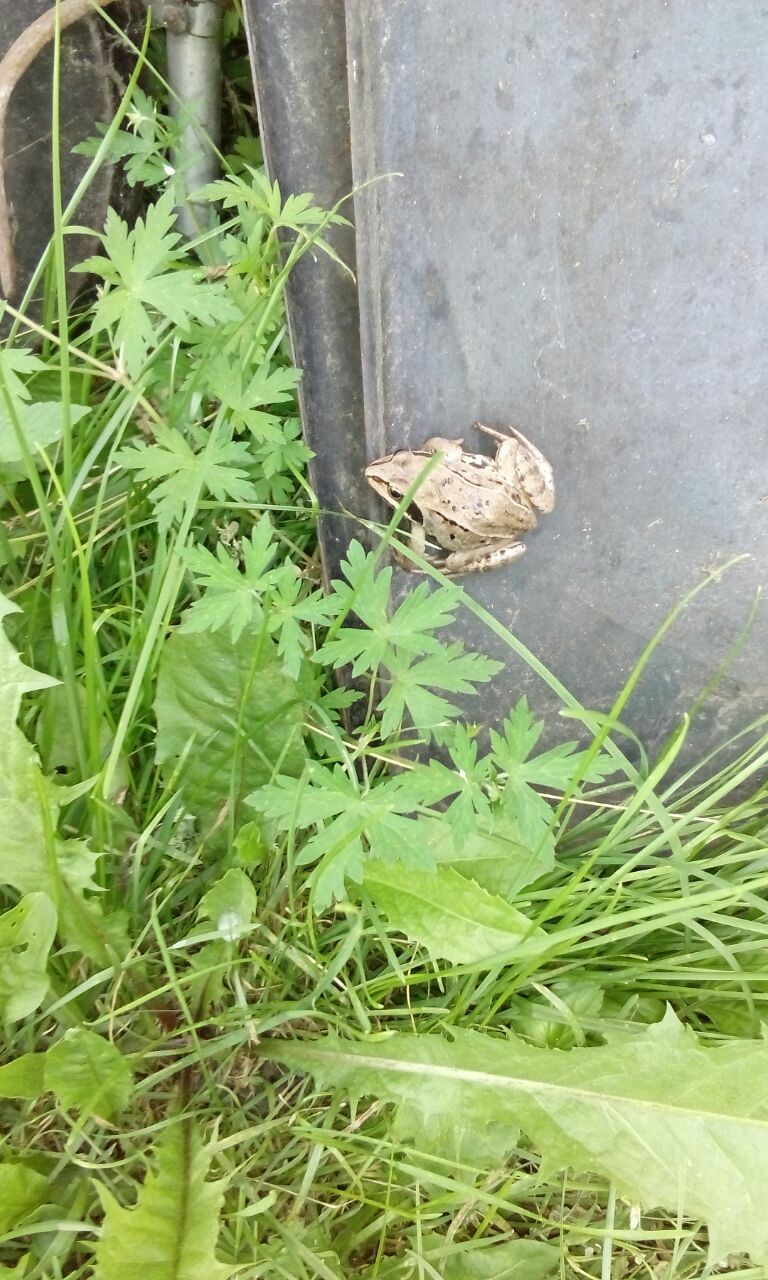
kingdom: Animalia
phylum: Chordata
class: Amphibia
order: Anura
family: Ranidae
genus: Rana
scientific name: Rana arvalis
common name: Moor frog
